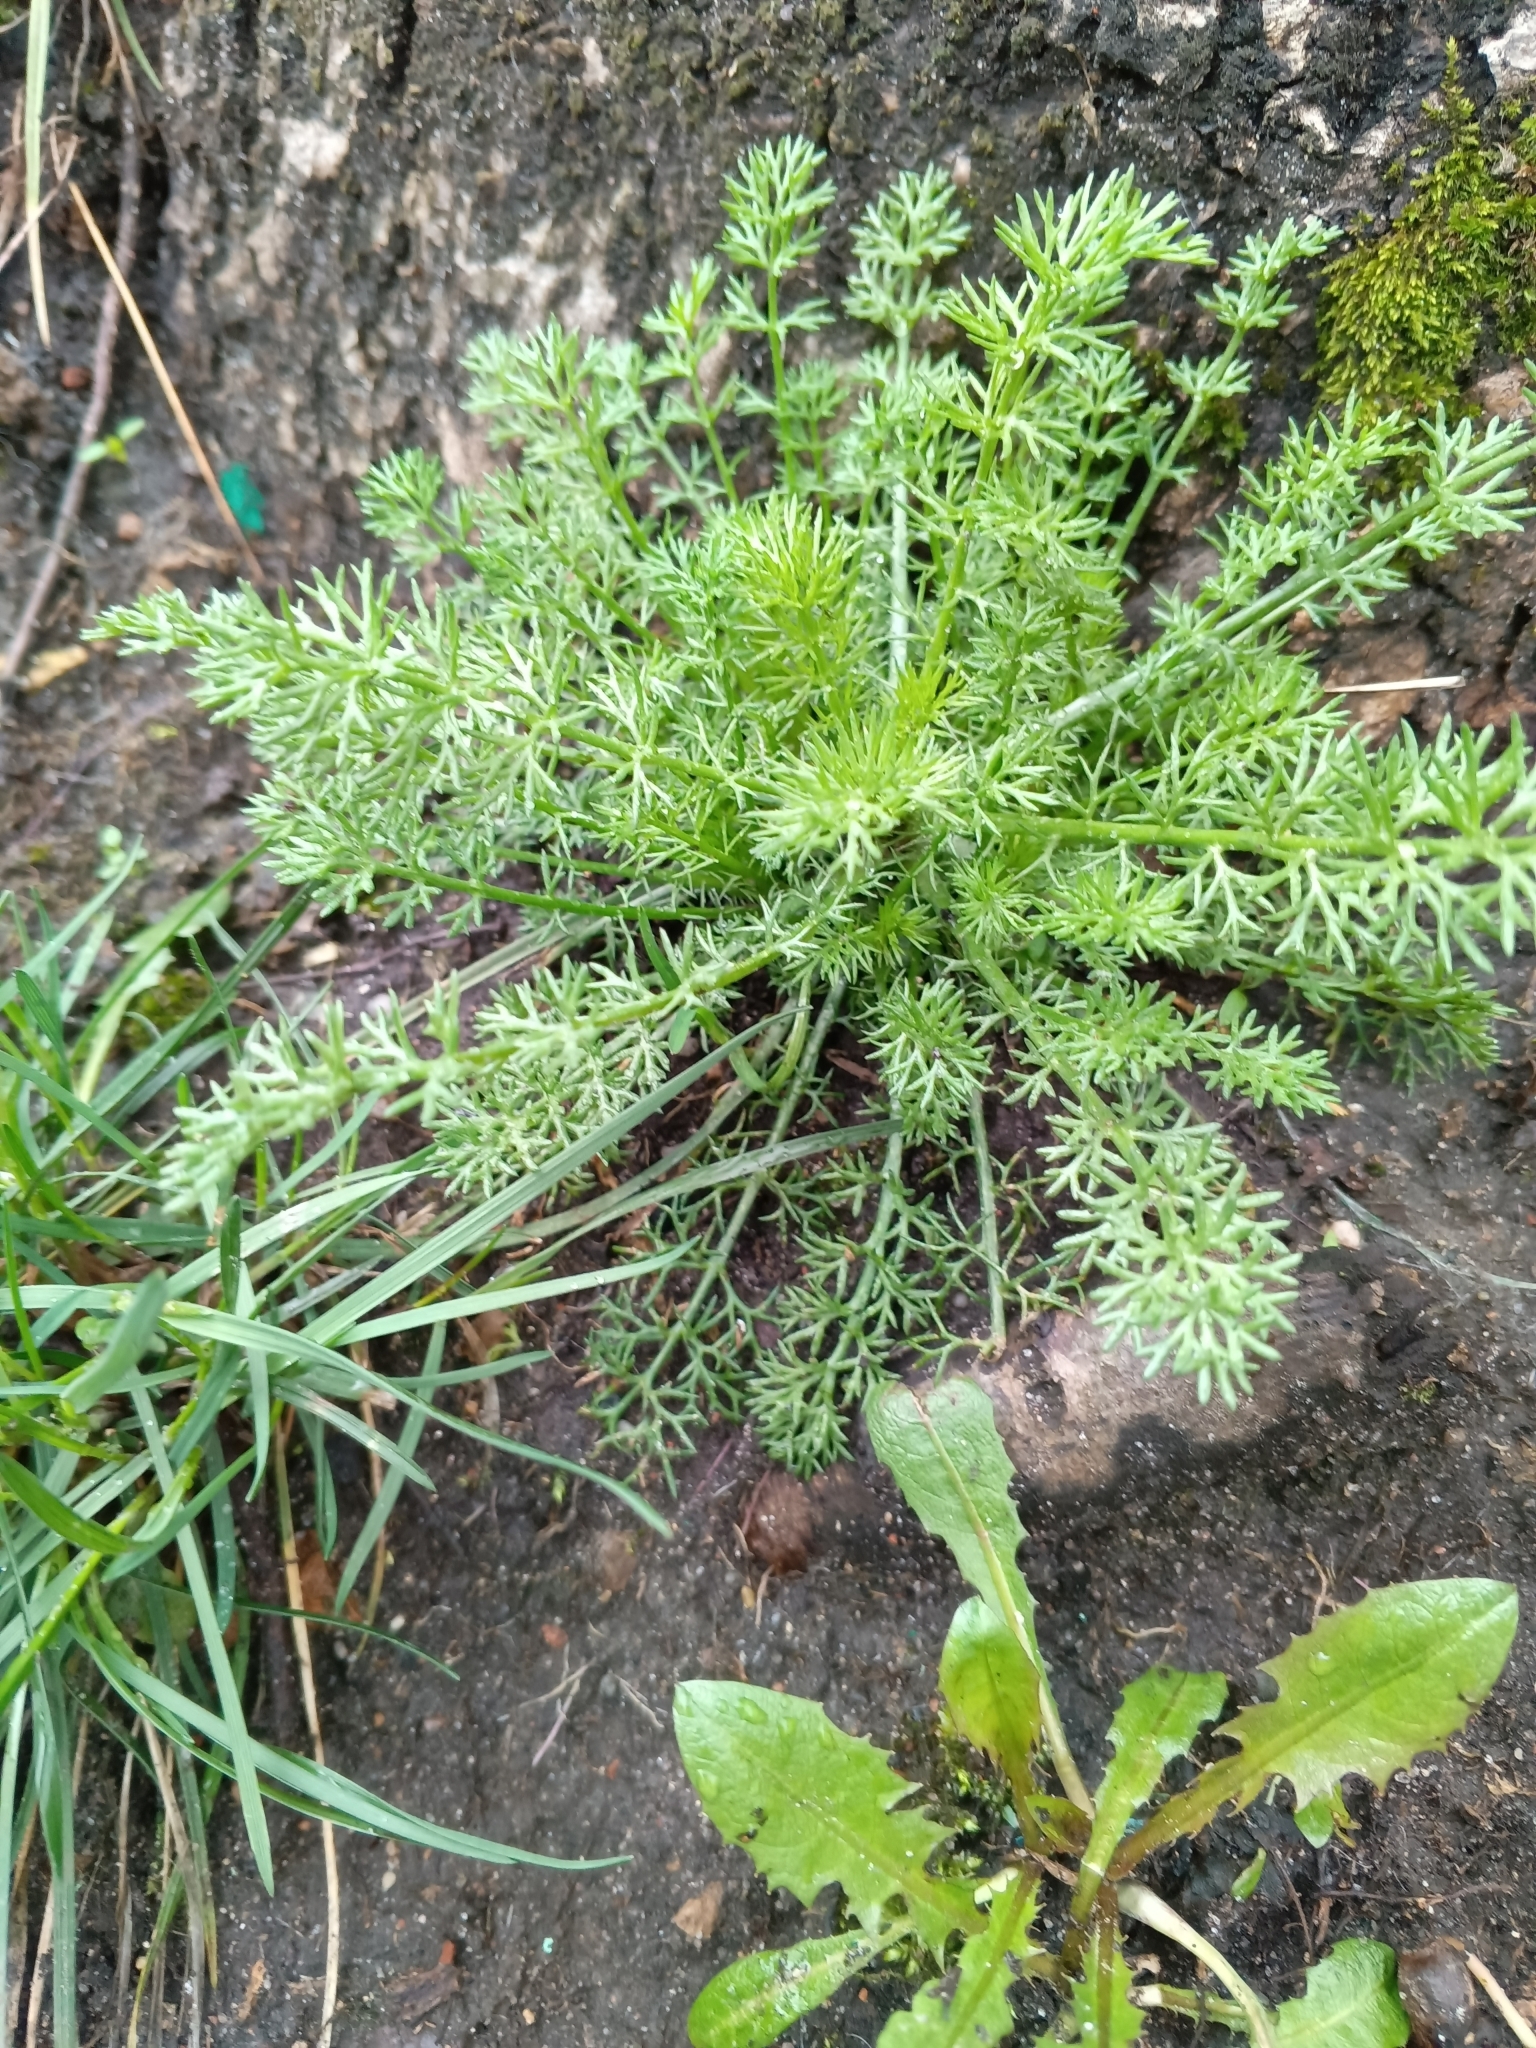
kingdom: Plantae
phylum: Tracheophyta
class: Magnoliopsida
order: Asterales
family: Asteraceae
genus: Tripleurospermum
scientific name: Tripleurospermum inodorum
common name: Scentless mayweed
